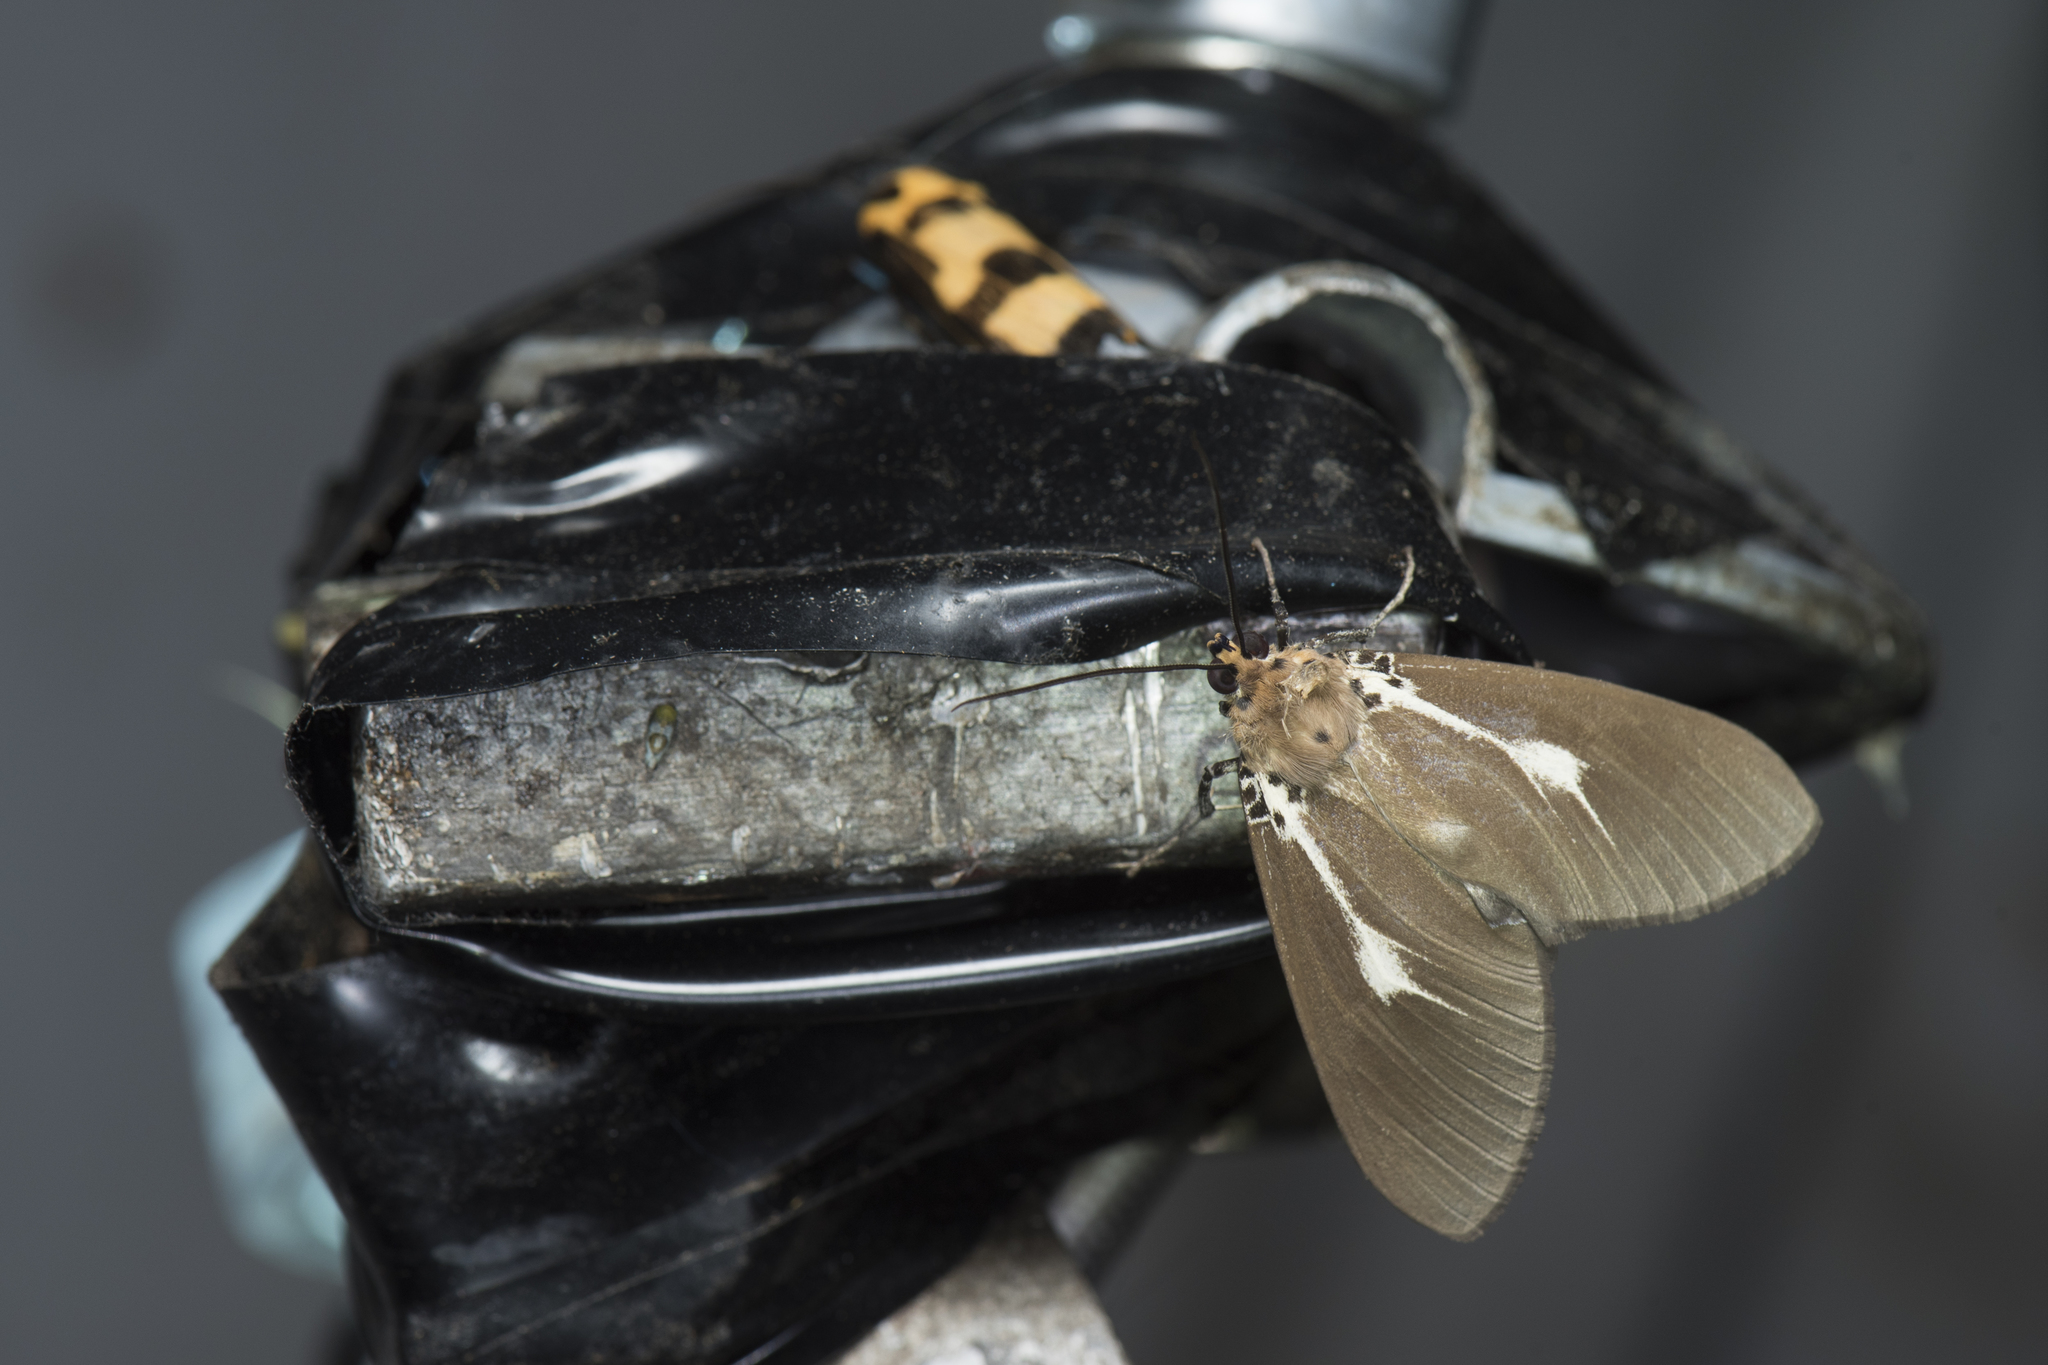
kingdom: Animalia
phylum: Arthropoda
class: Insecta
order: Lepidoptera
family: Erebidae
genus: Asota
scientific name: Asota heliconia
